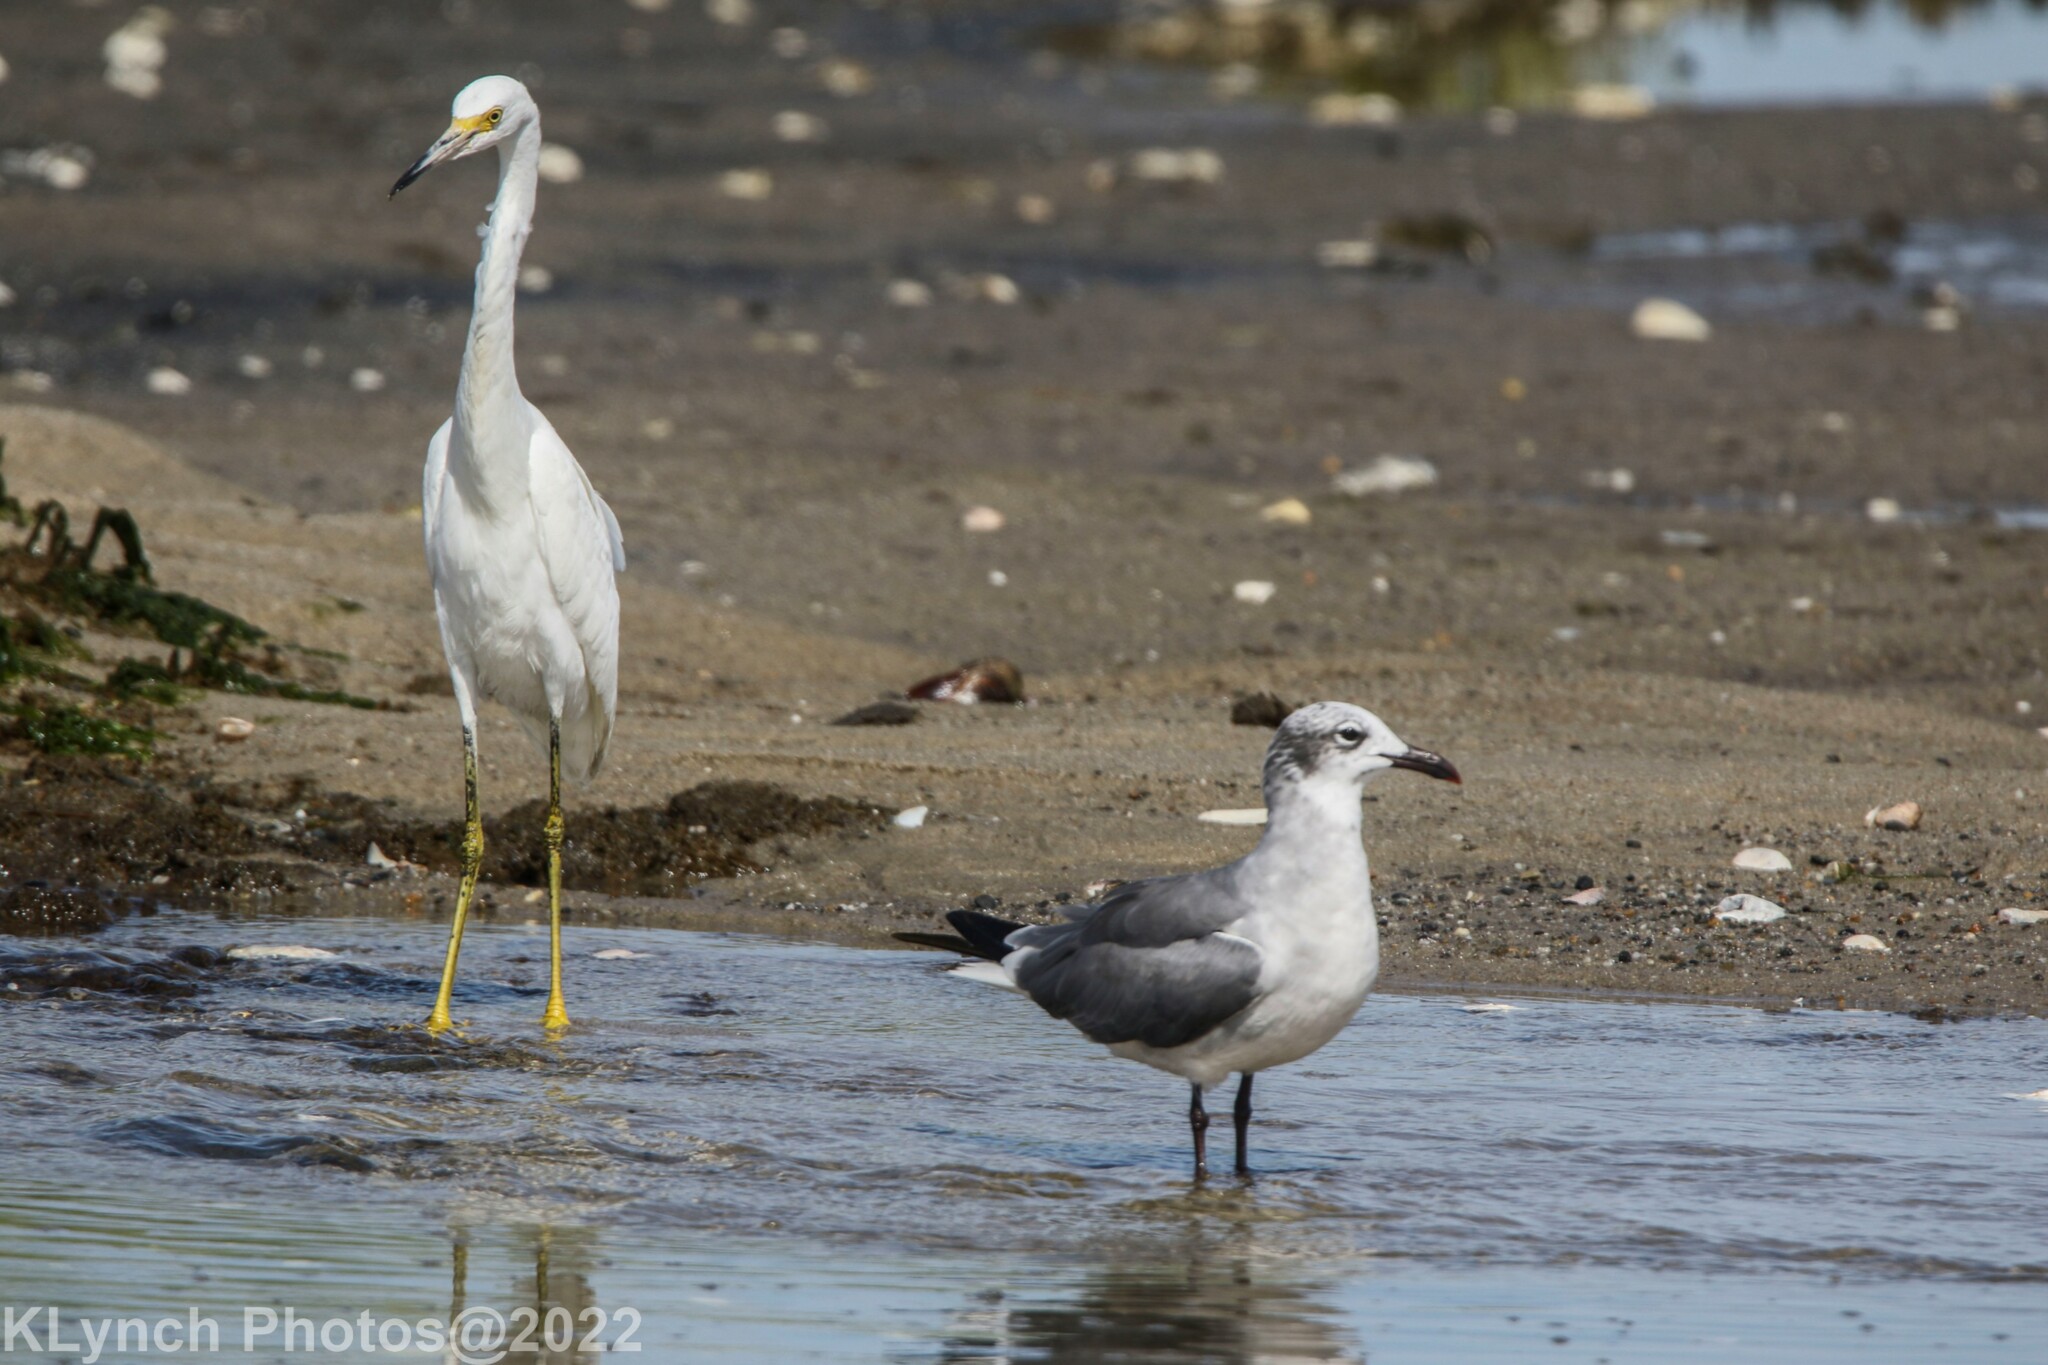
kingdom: Animalia
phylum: Chordata
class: Aves
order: Pelecaniformes
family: Ardeidae
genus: Egretta
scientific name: Egretta thula
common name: Snowy egret
